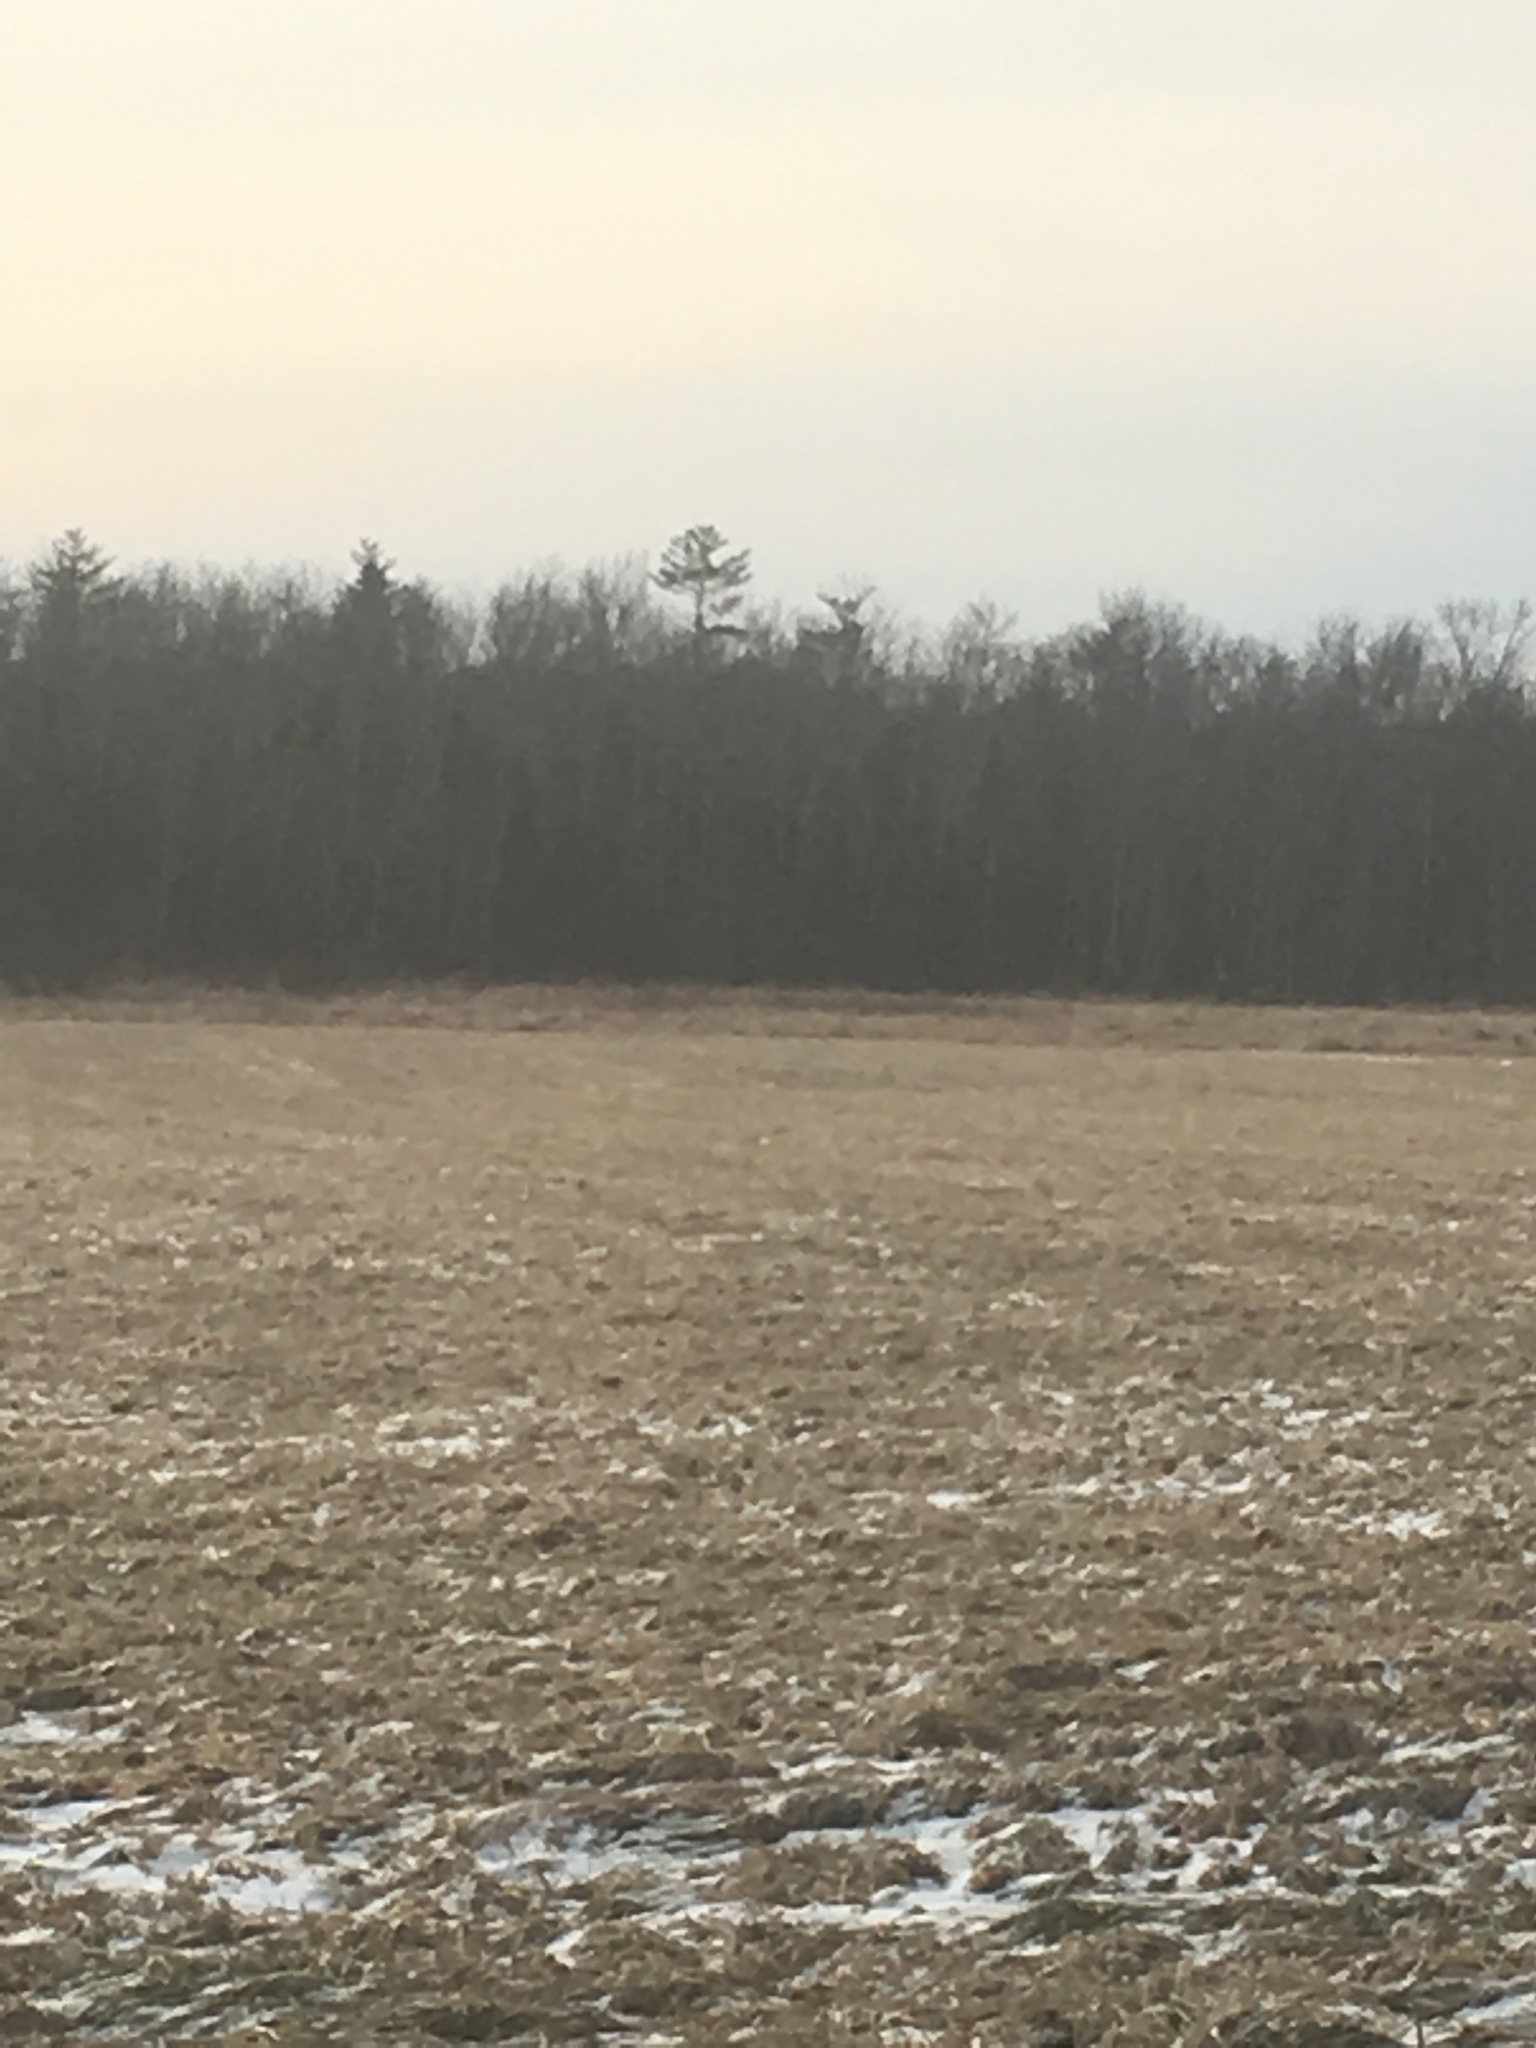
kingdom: Plantae
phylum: Tracheophyta
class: Pinopsida
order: Pinales
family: Pinaceae
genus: Pinus
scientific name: Pinus strobus
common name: Weymouth pine
